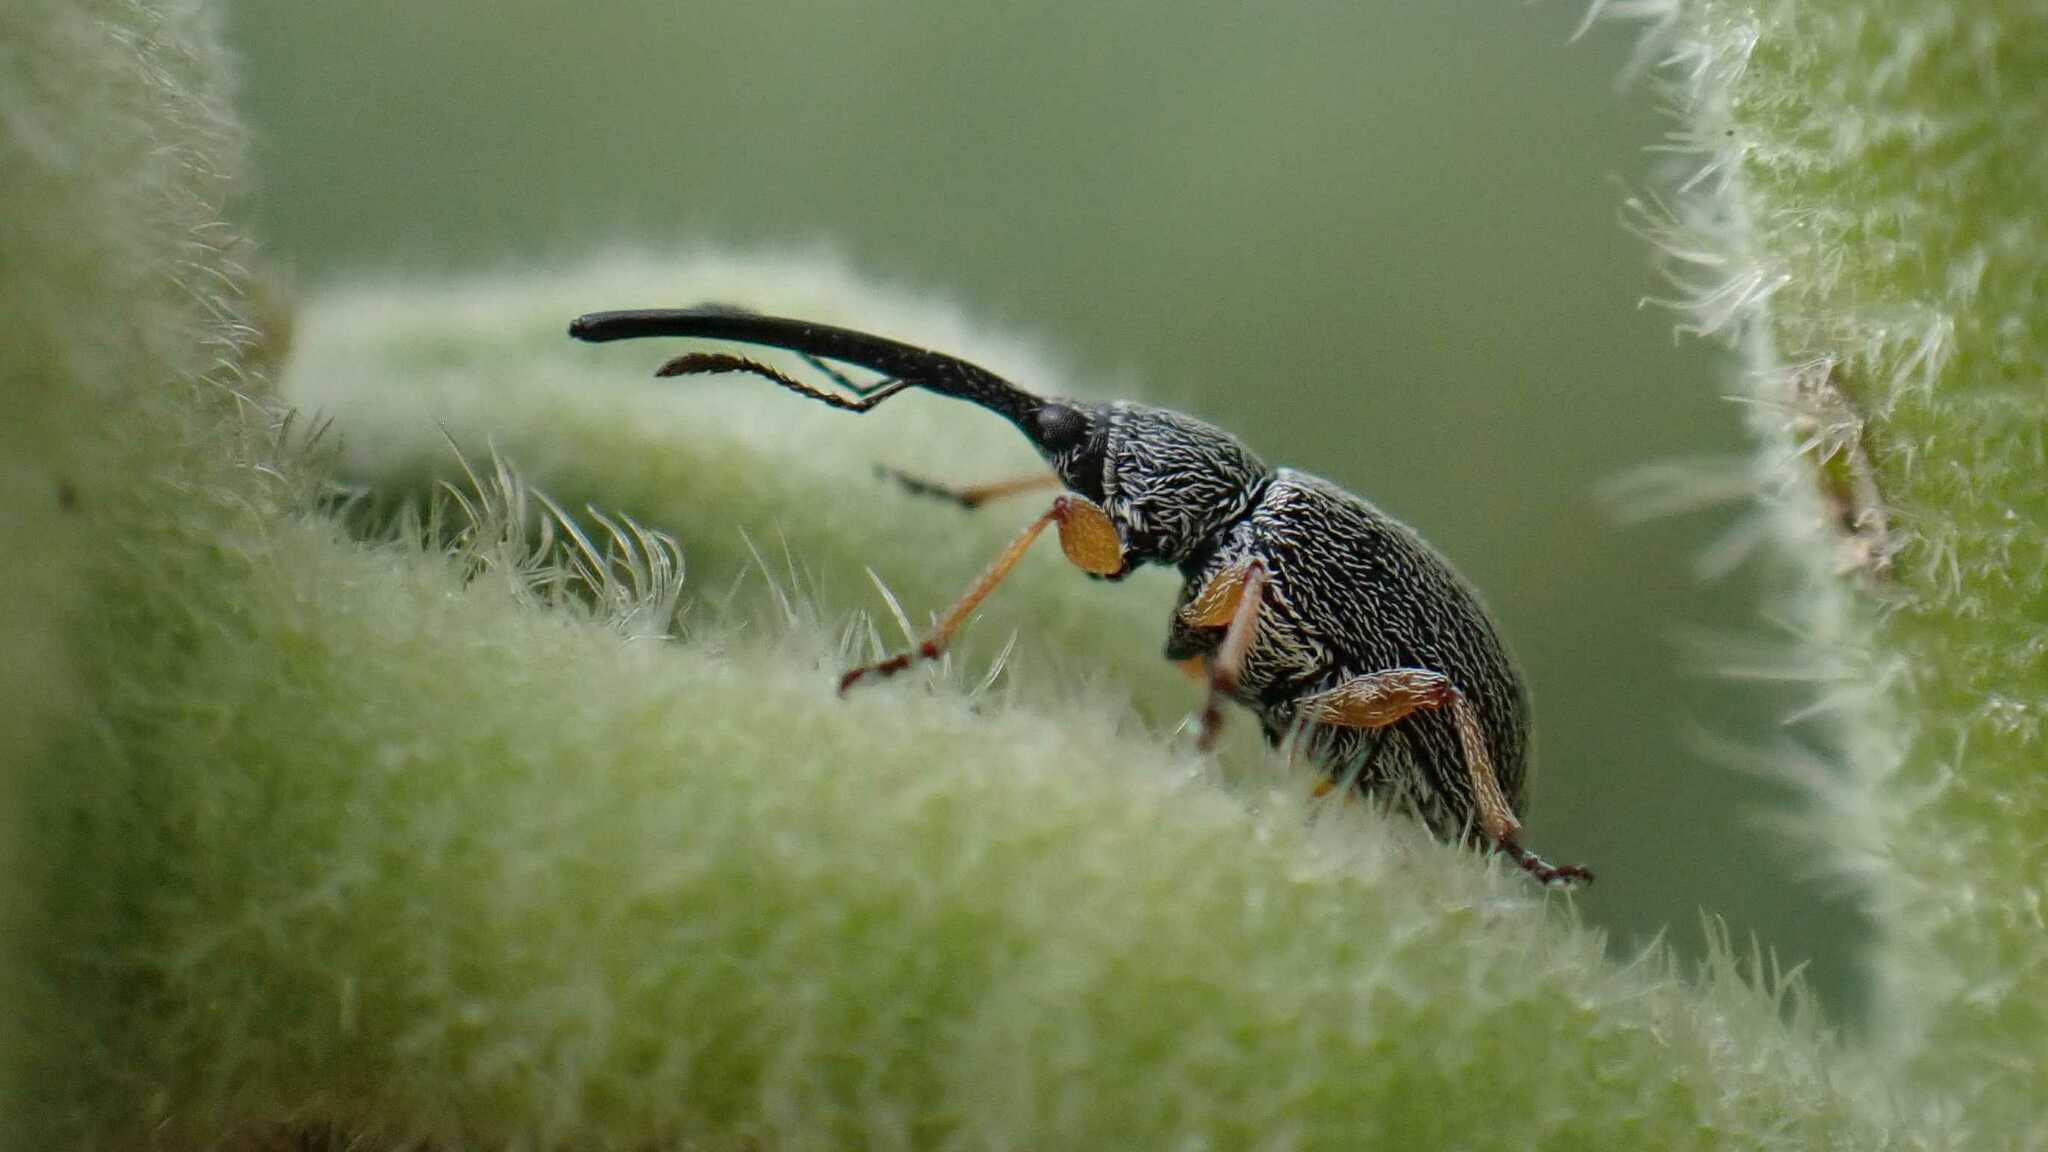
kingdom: Animalia
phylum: Arthropoda
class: Insecta
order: Coleoptera
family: Brentidae
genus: Rhopalapion
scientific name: Rhopalapion longirostre
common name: Hollyhock weevil
